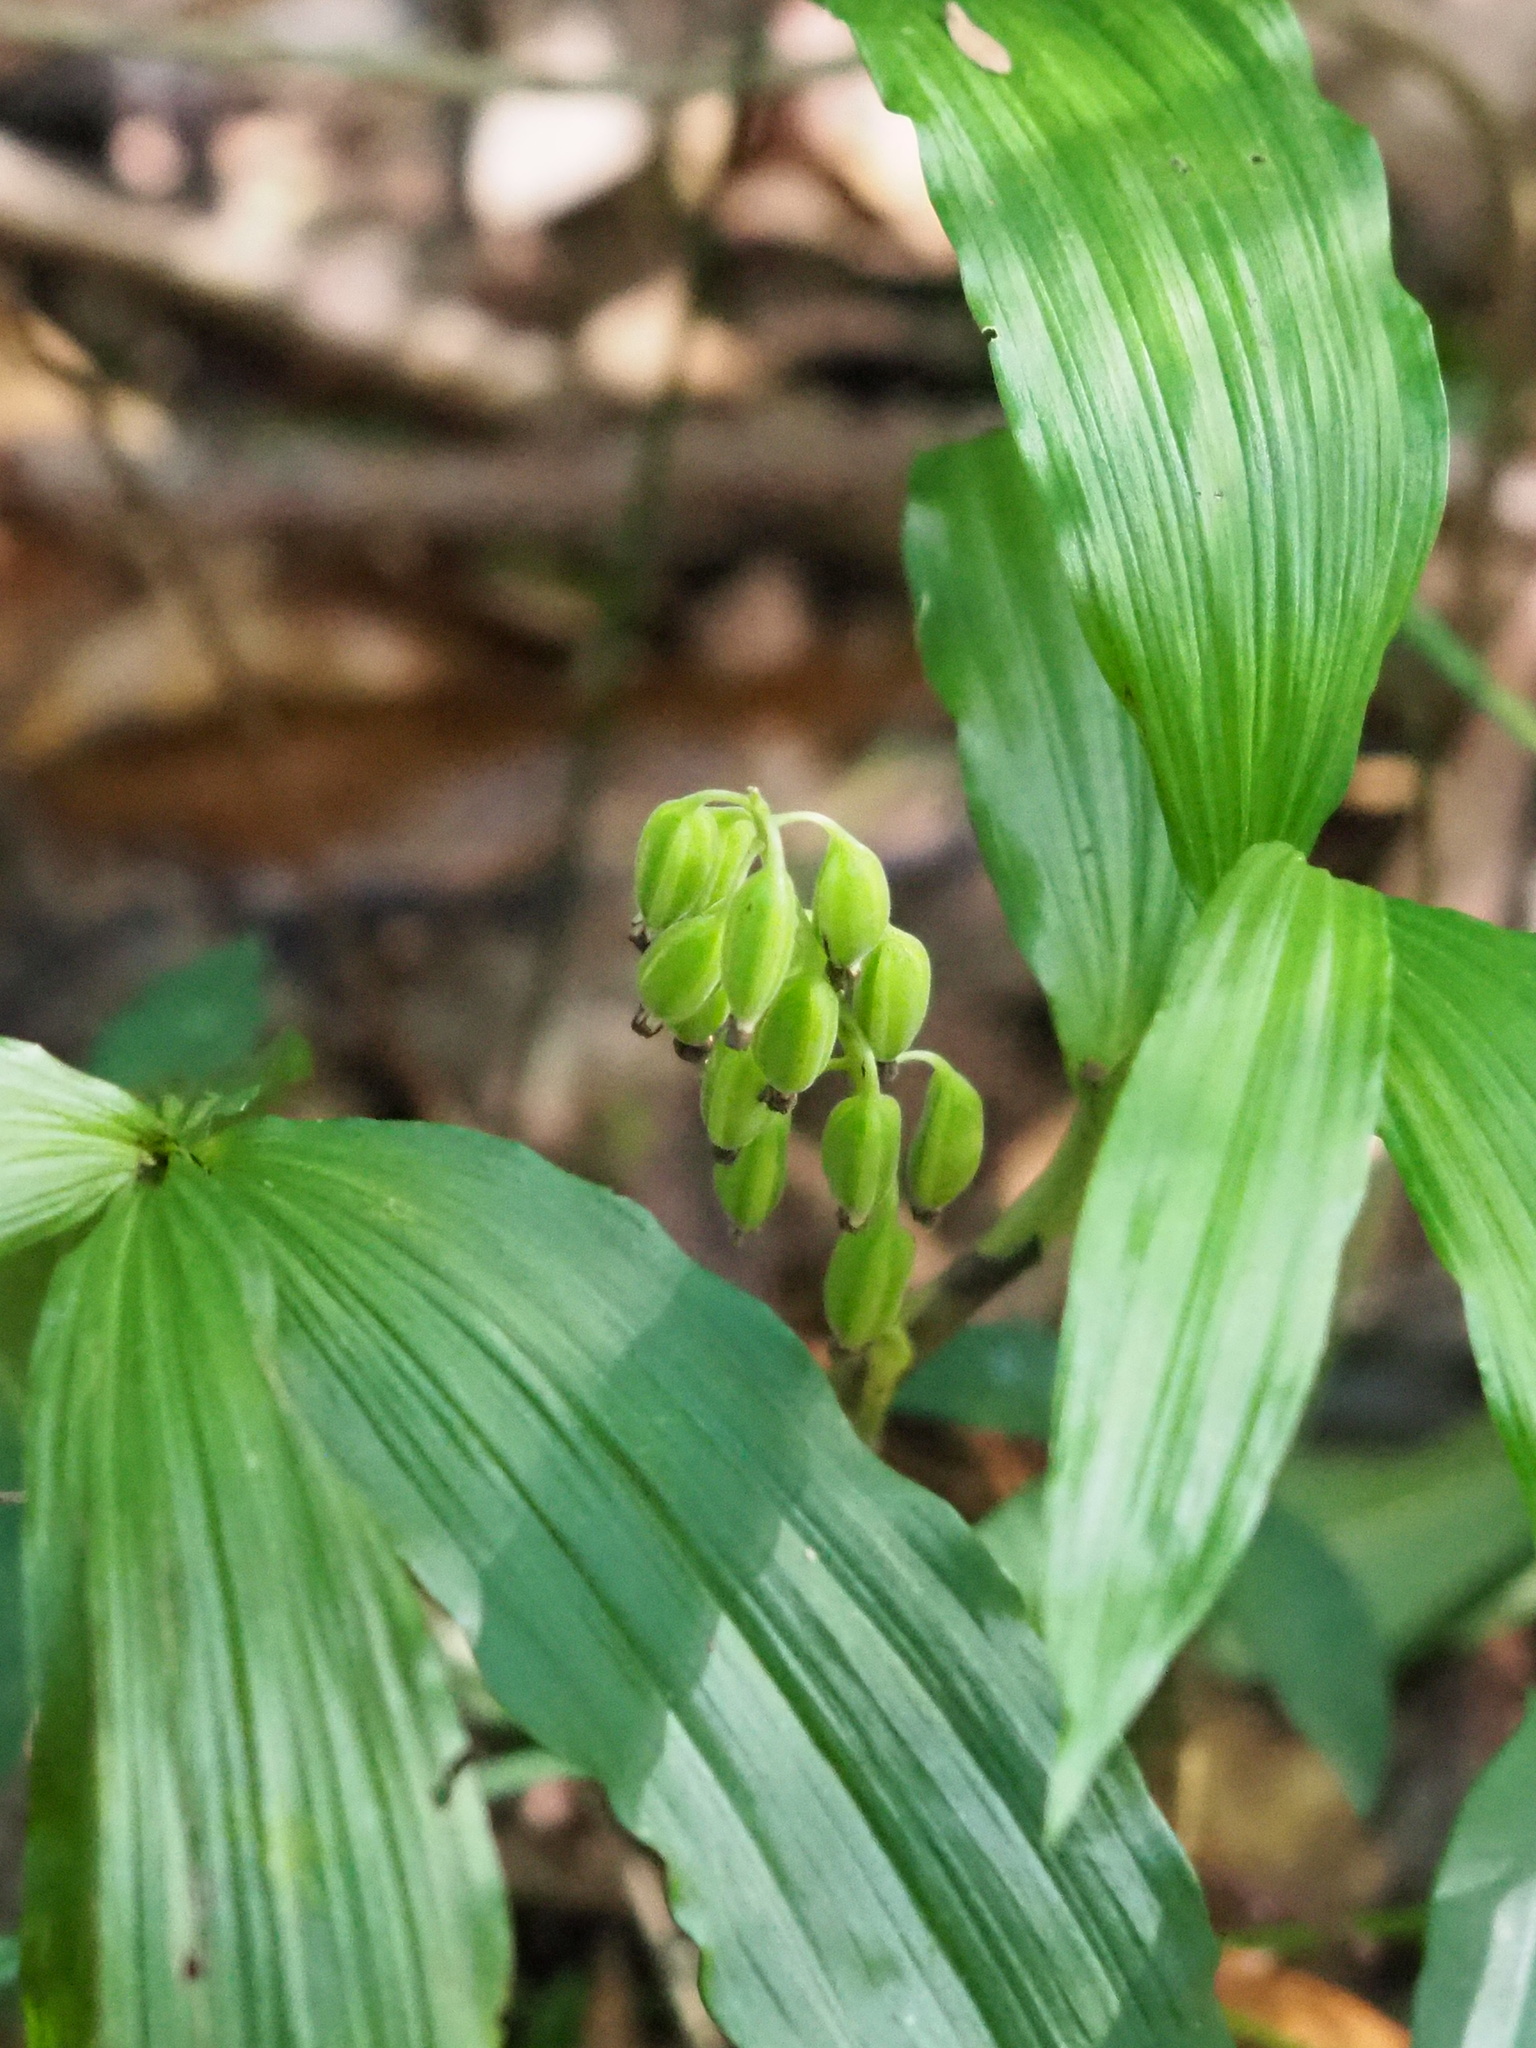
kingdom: Plantae
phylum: Tracheophyta
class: Liliopsida
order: Asparagales
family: Orchidaceae
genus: Calanthe
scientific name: Calanthe obcordata
